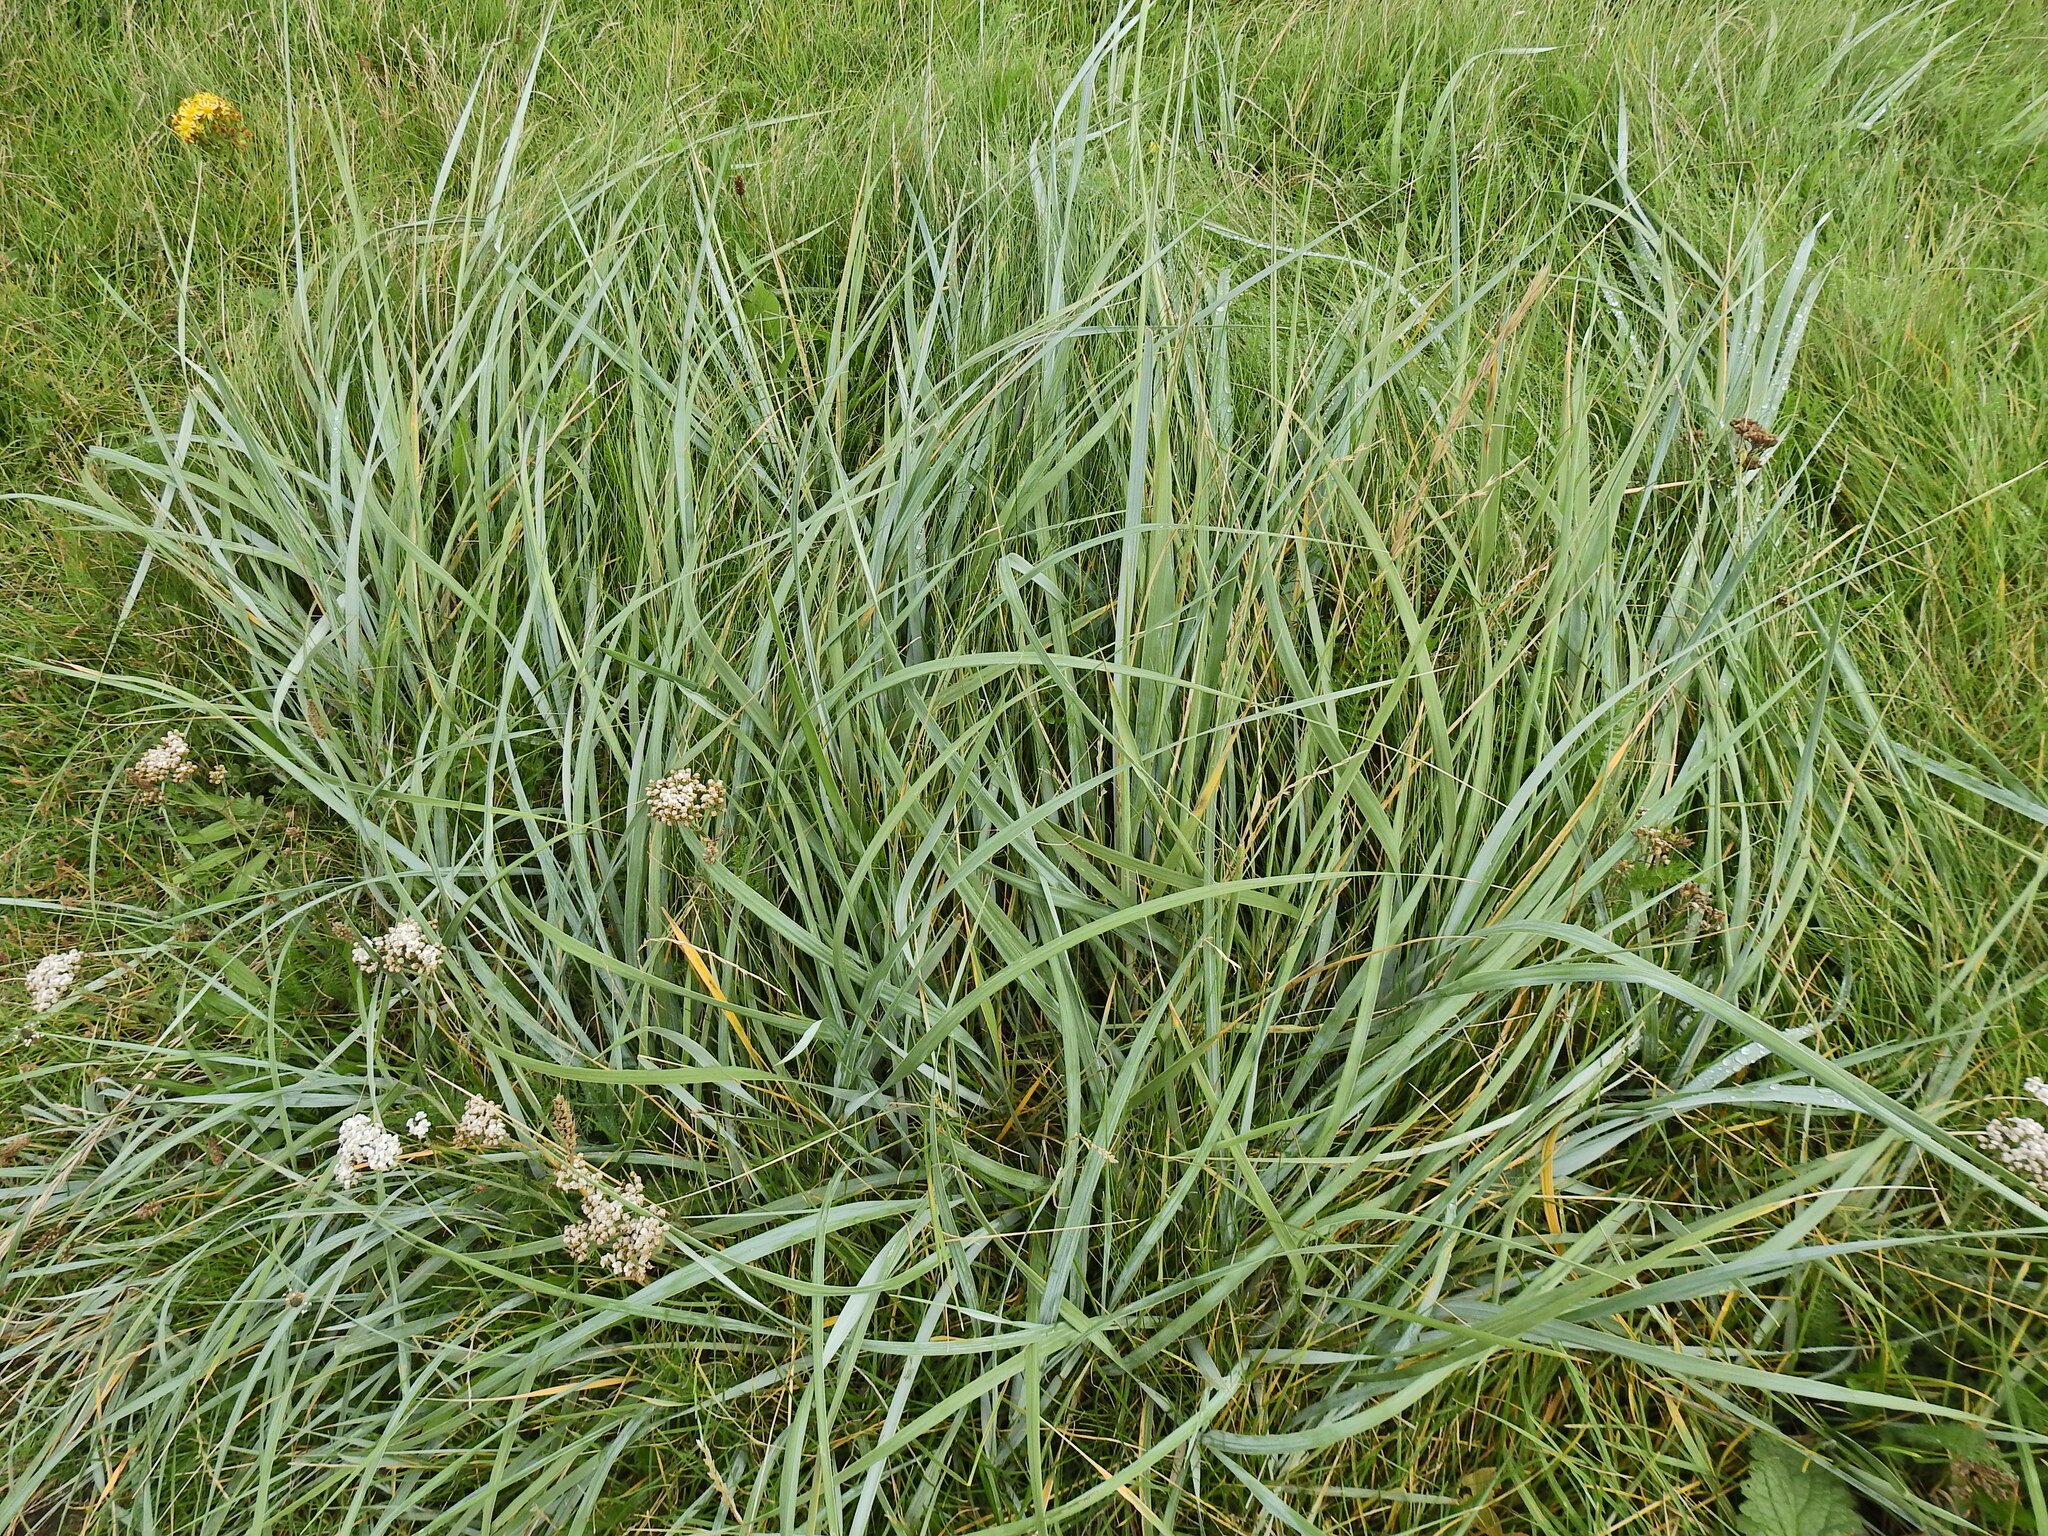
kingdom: Plantae
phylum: Tracheophyta
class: Liliopsida
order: Poales
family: Poaceae
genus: Leymus
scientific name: Leymus arenarius
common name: Lyme-grass
